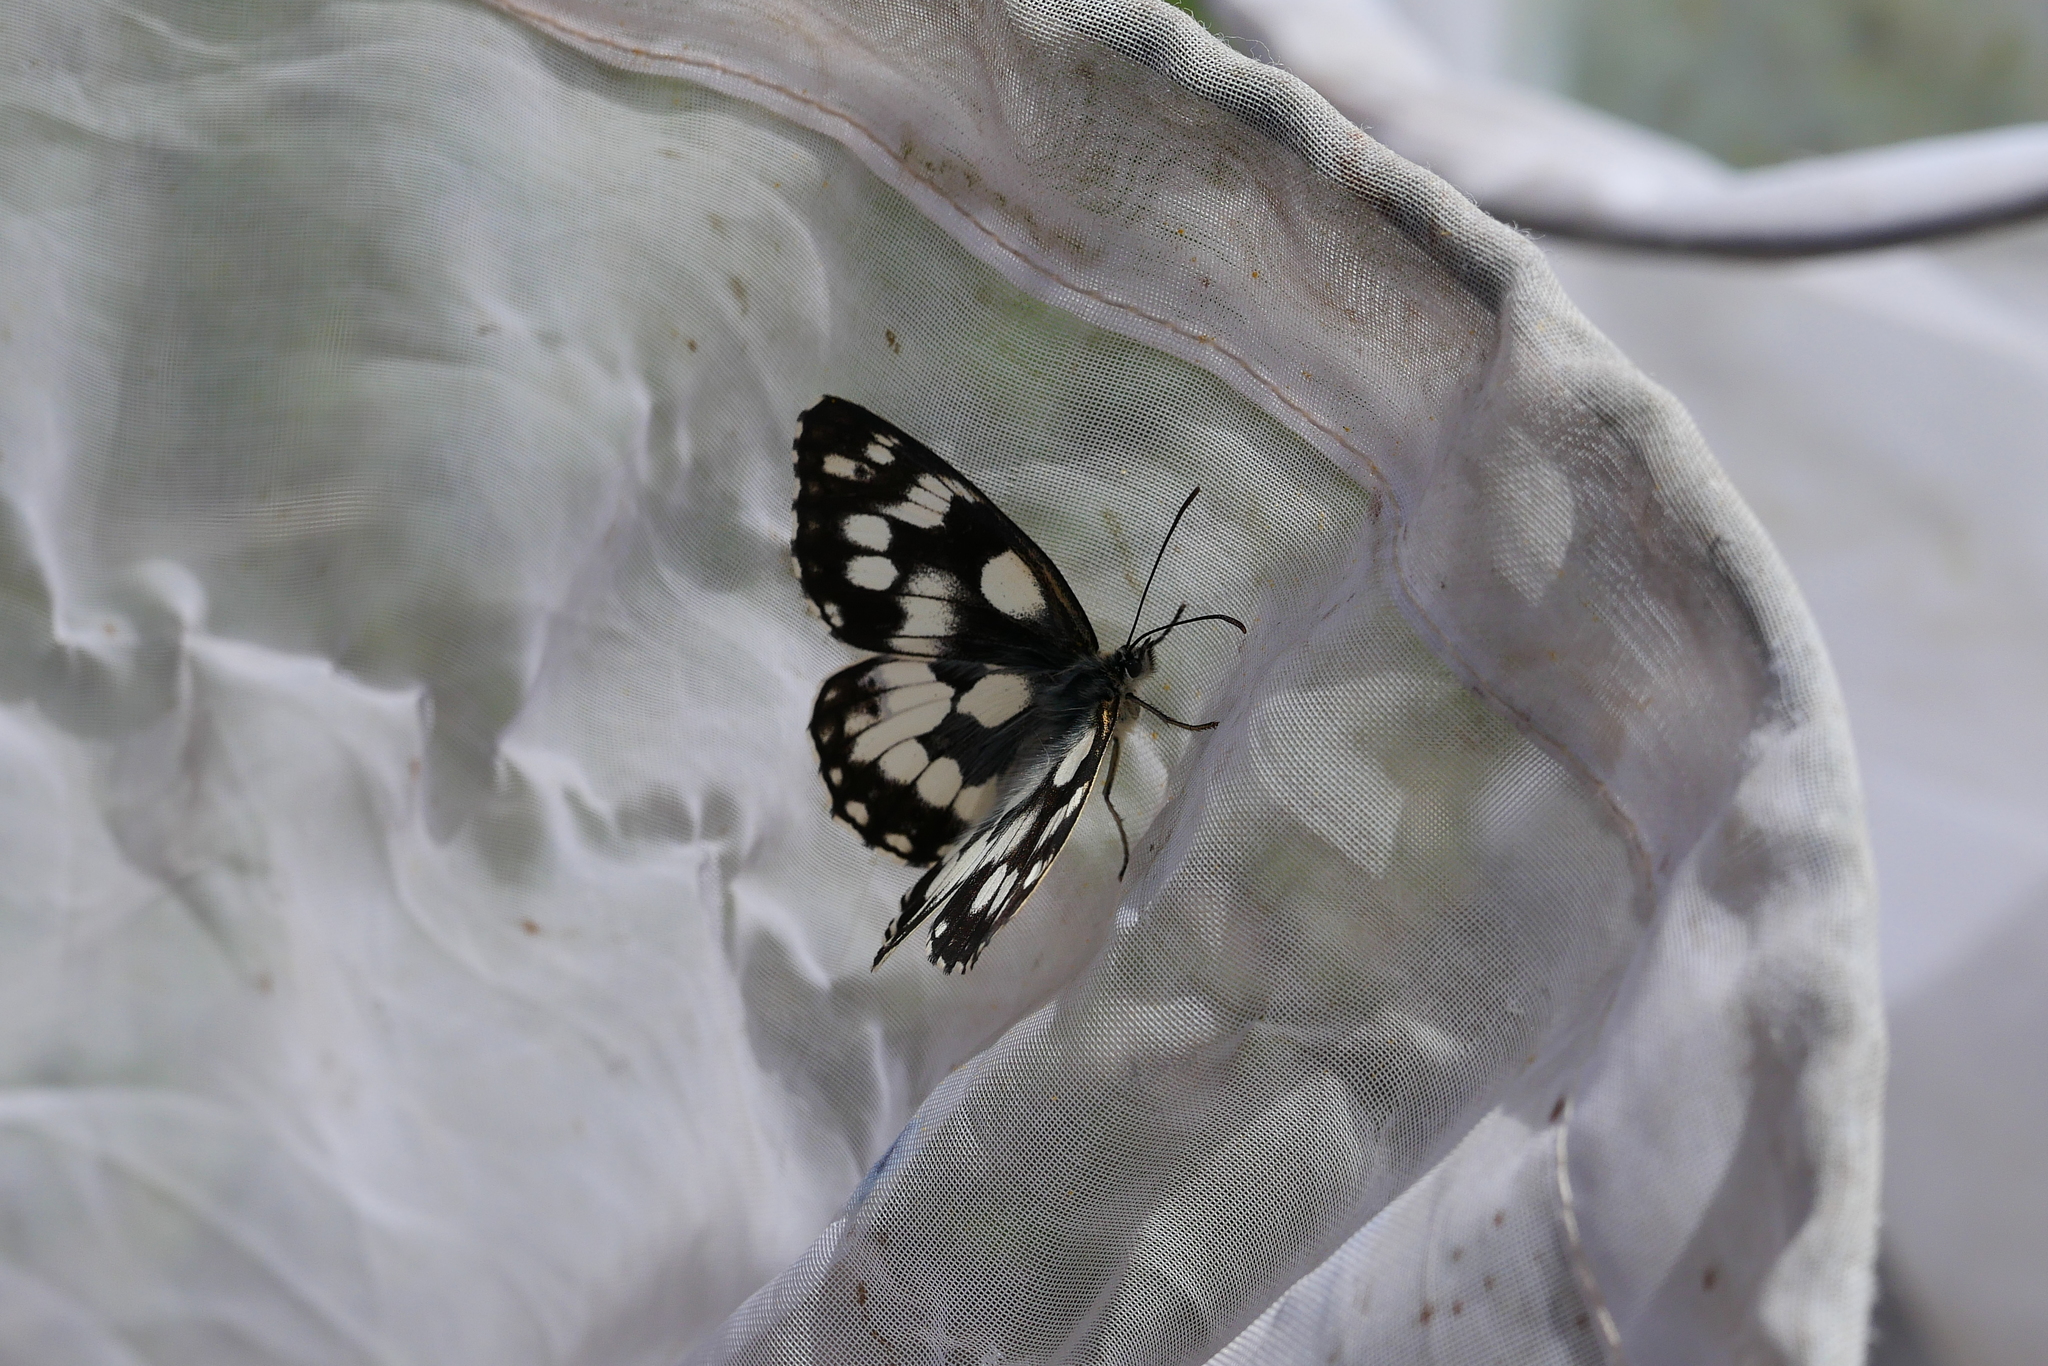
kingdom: Animalia
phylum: Arthropoda
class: Insecta
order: Lepidoptera
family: Nymphalidae
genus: Melanargia
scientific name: Melanargia galathea
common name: Marbled white
